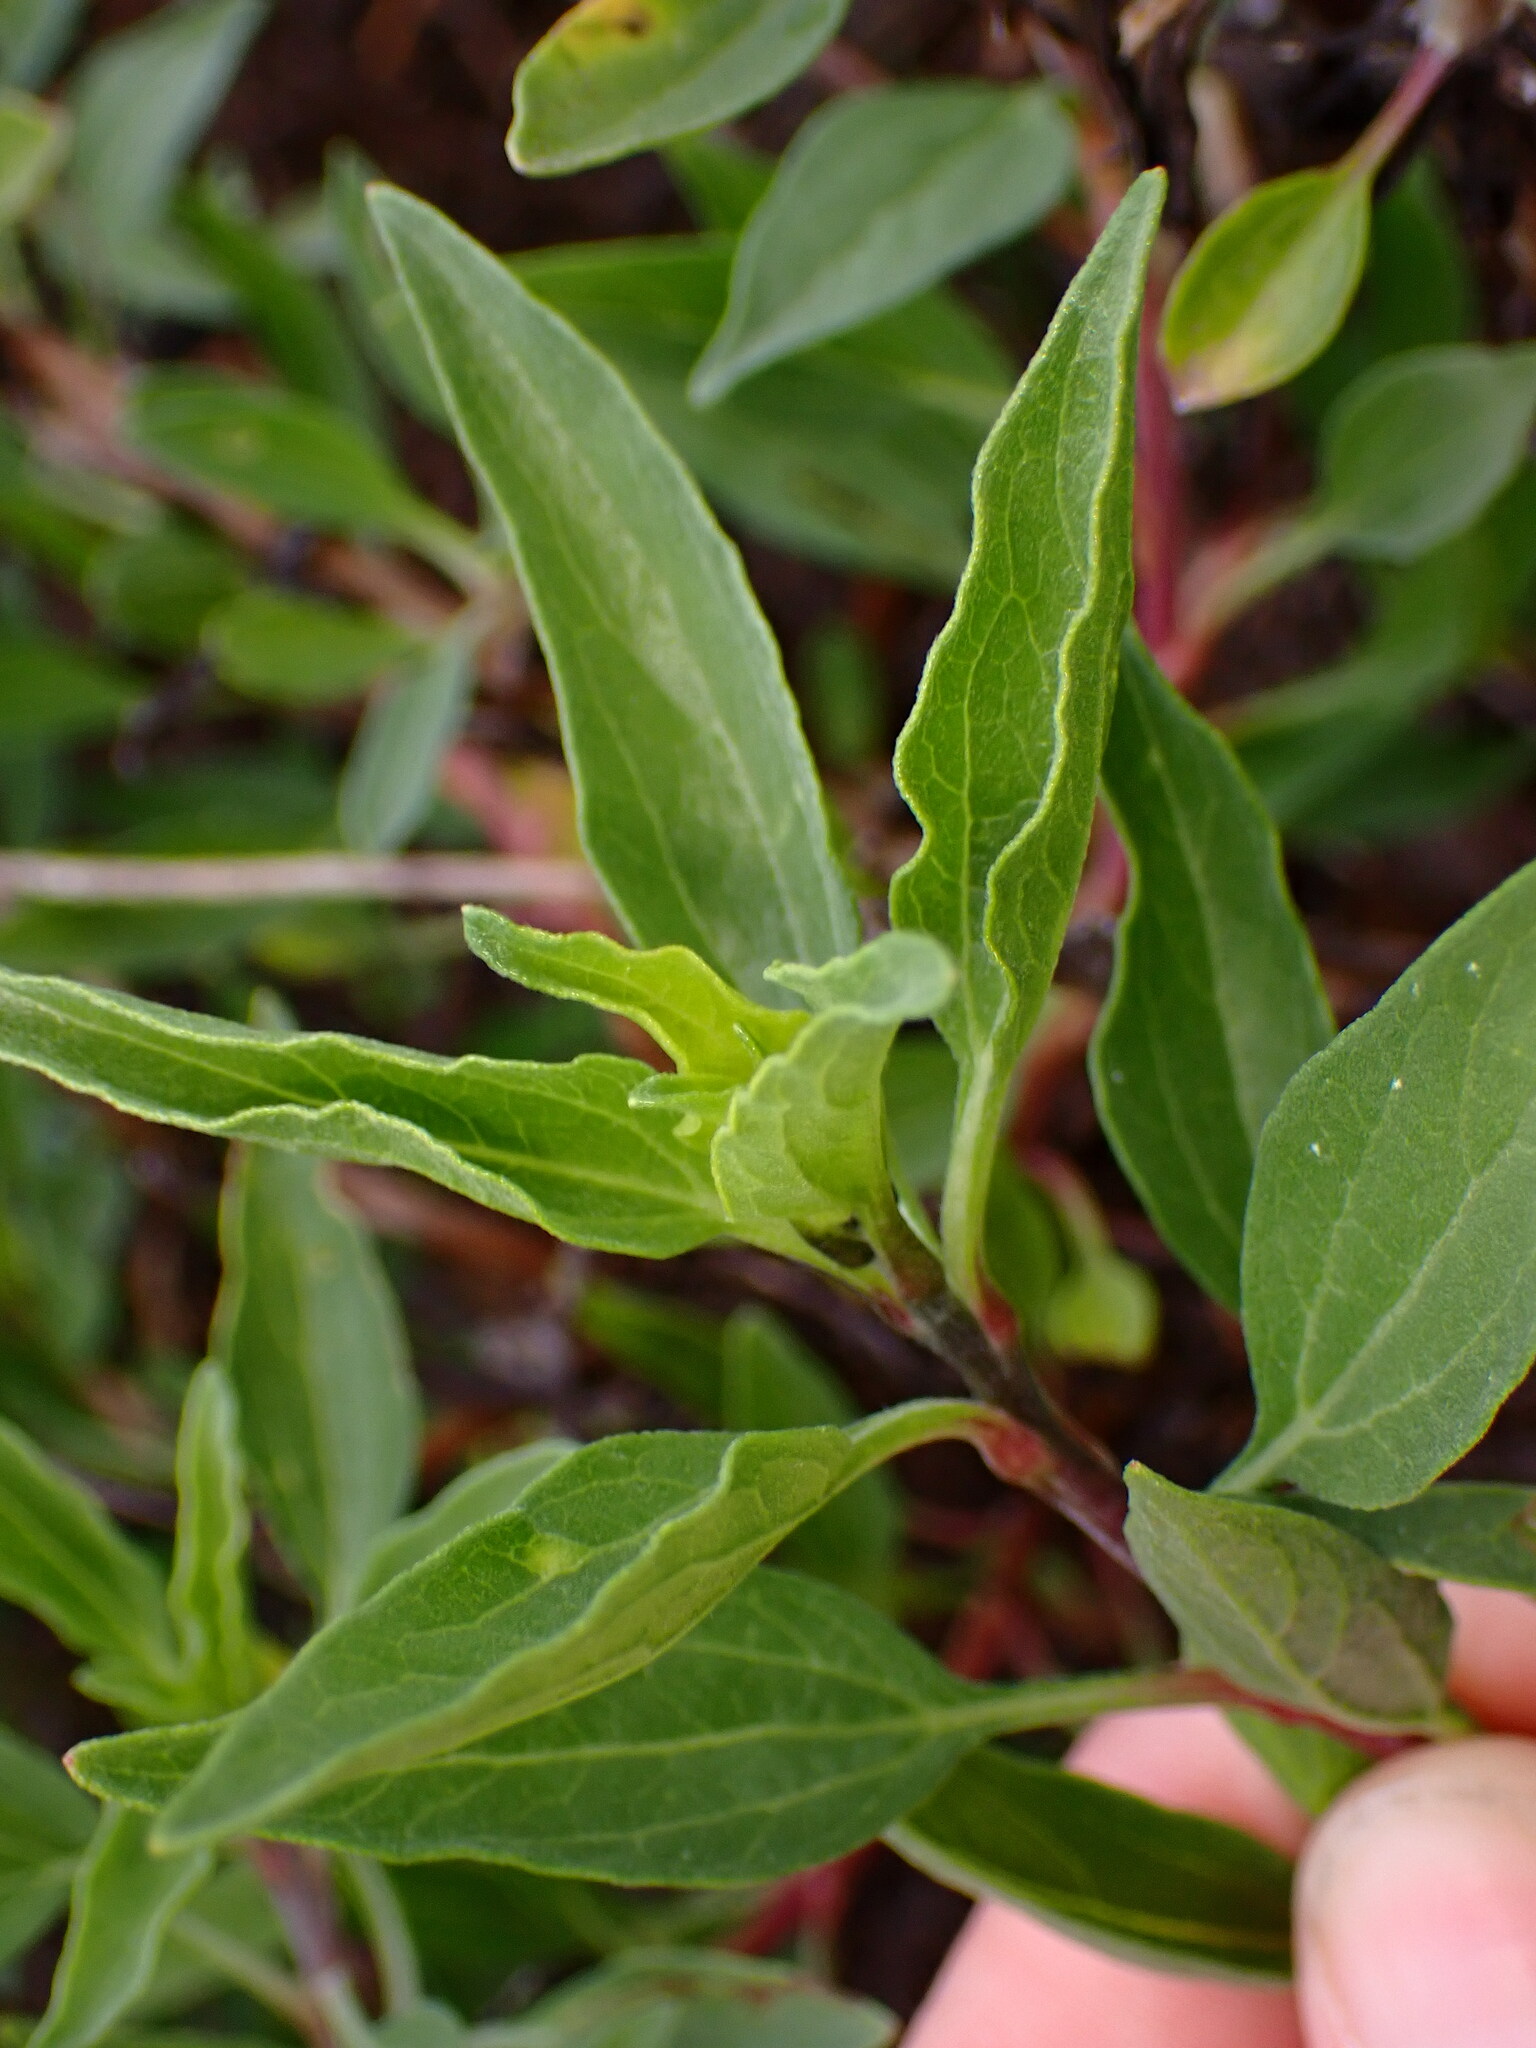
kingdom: Plantae
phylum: Tracheophyta
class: Magnoliopsida
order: Asterales
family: Asteraceae
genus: Encelia
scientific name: Encelia californica
